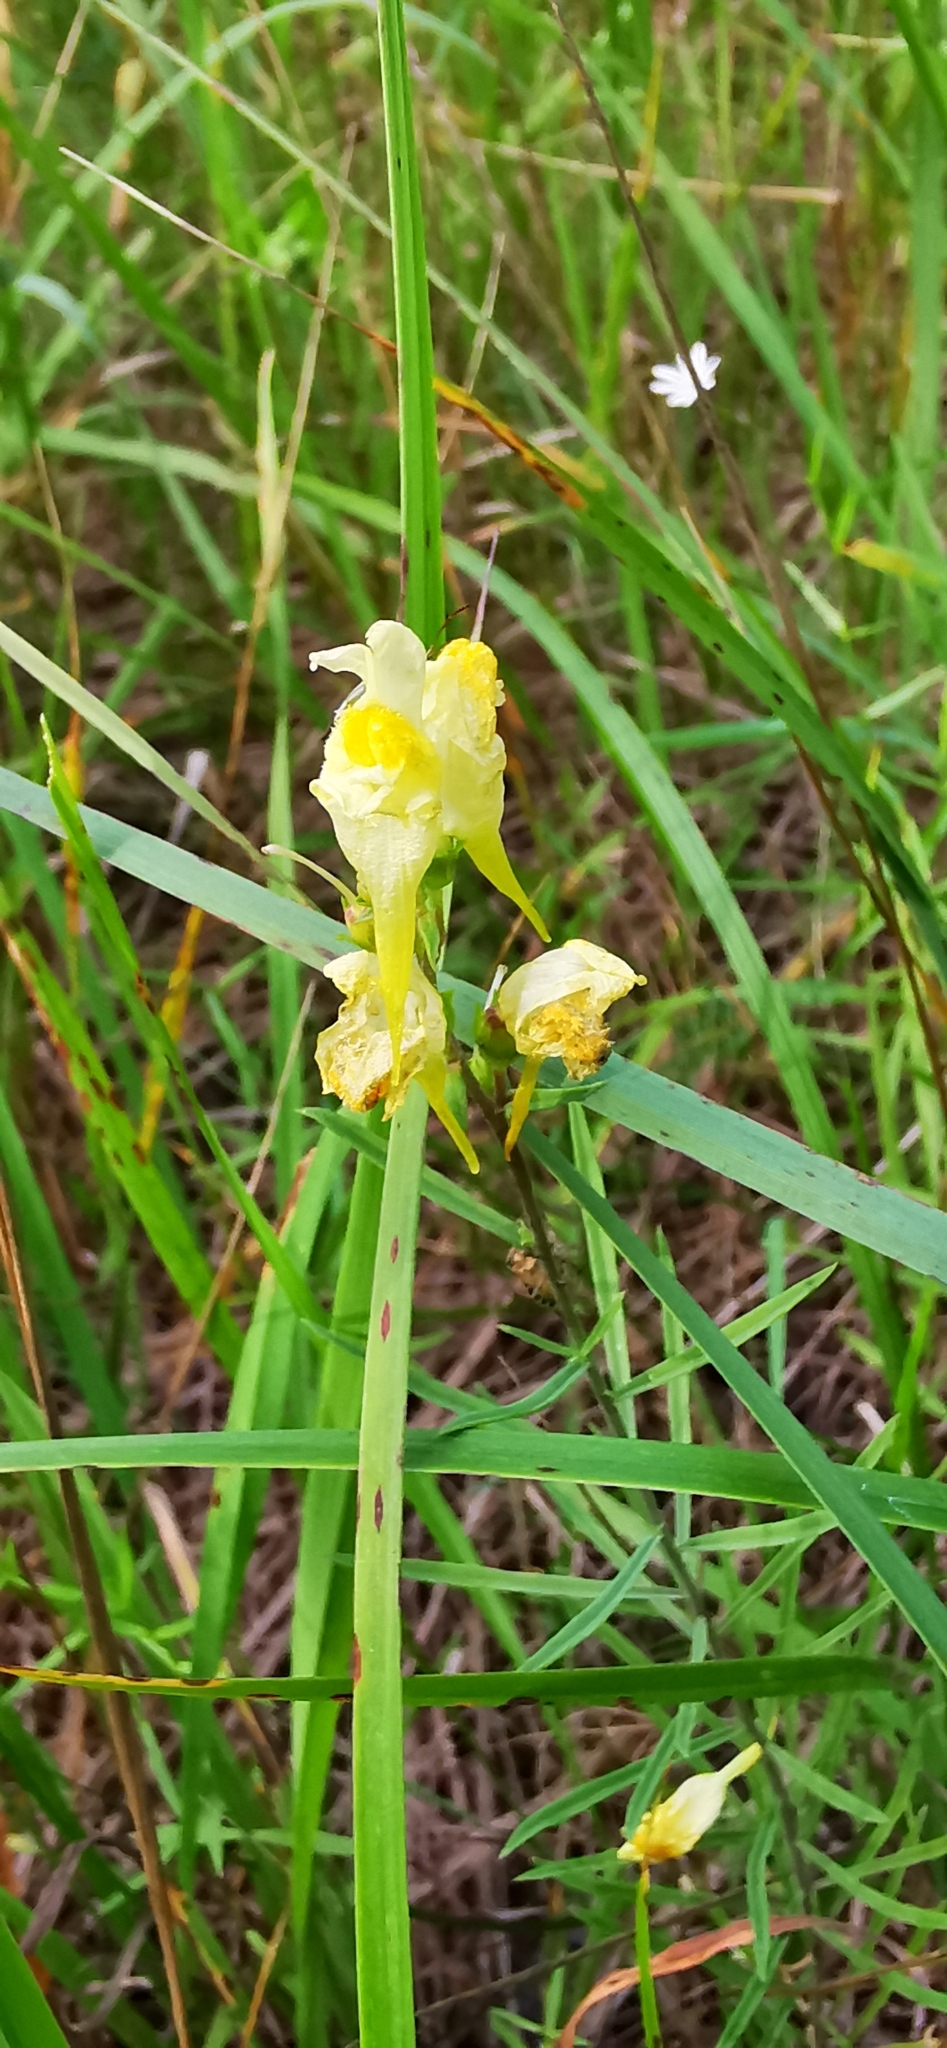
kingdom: Plantae
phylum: Tracheophyta
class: Magnoliopsida
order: Lamiales
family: Plantaginaceae
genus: Linaria
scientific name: Linaria vulgaris
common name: Butter and eggs
